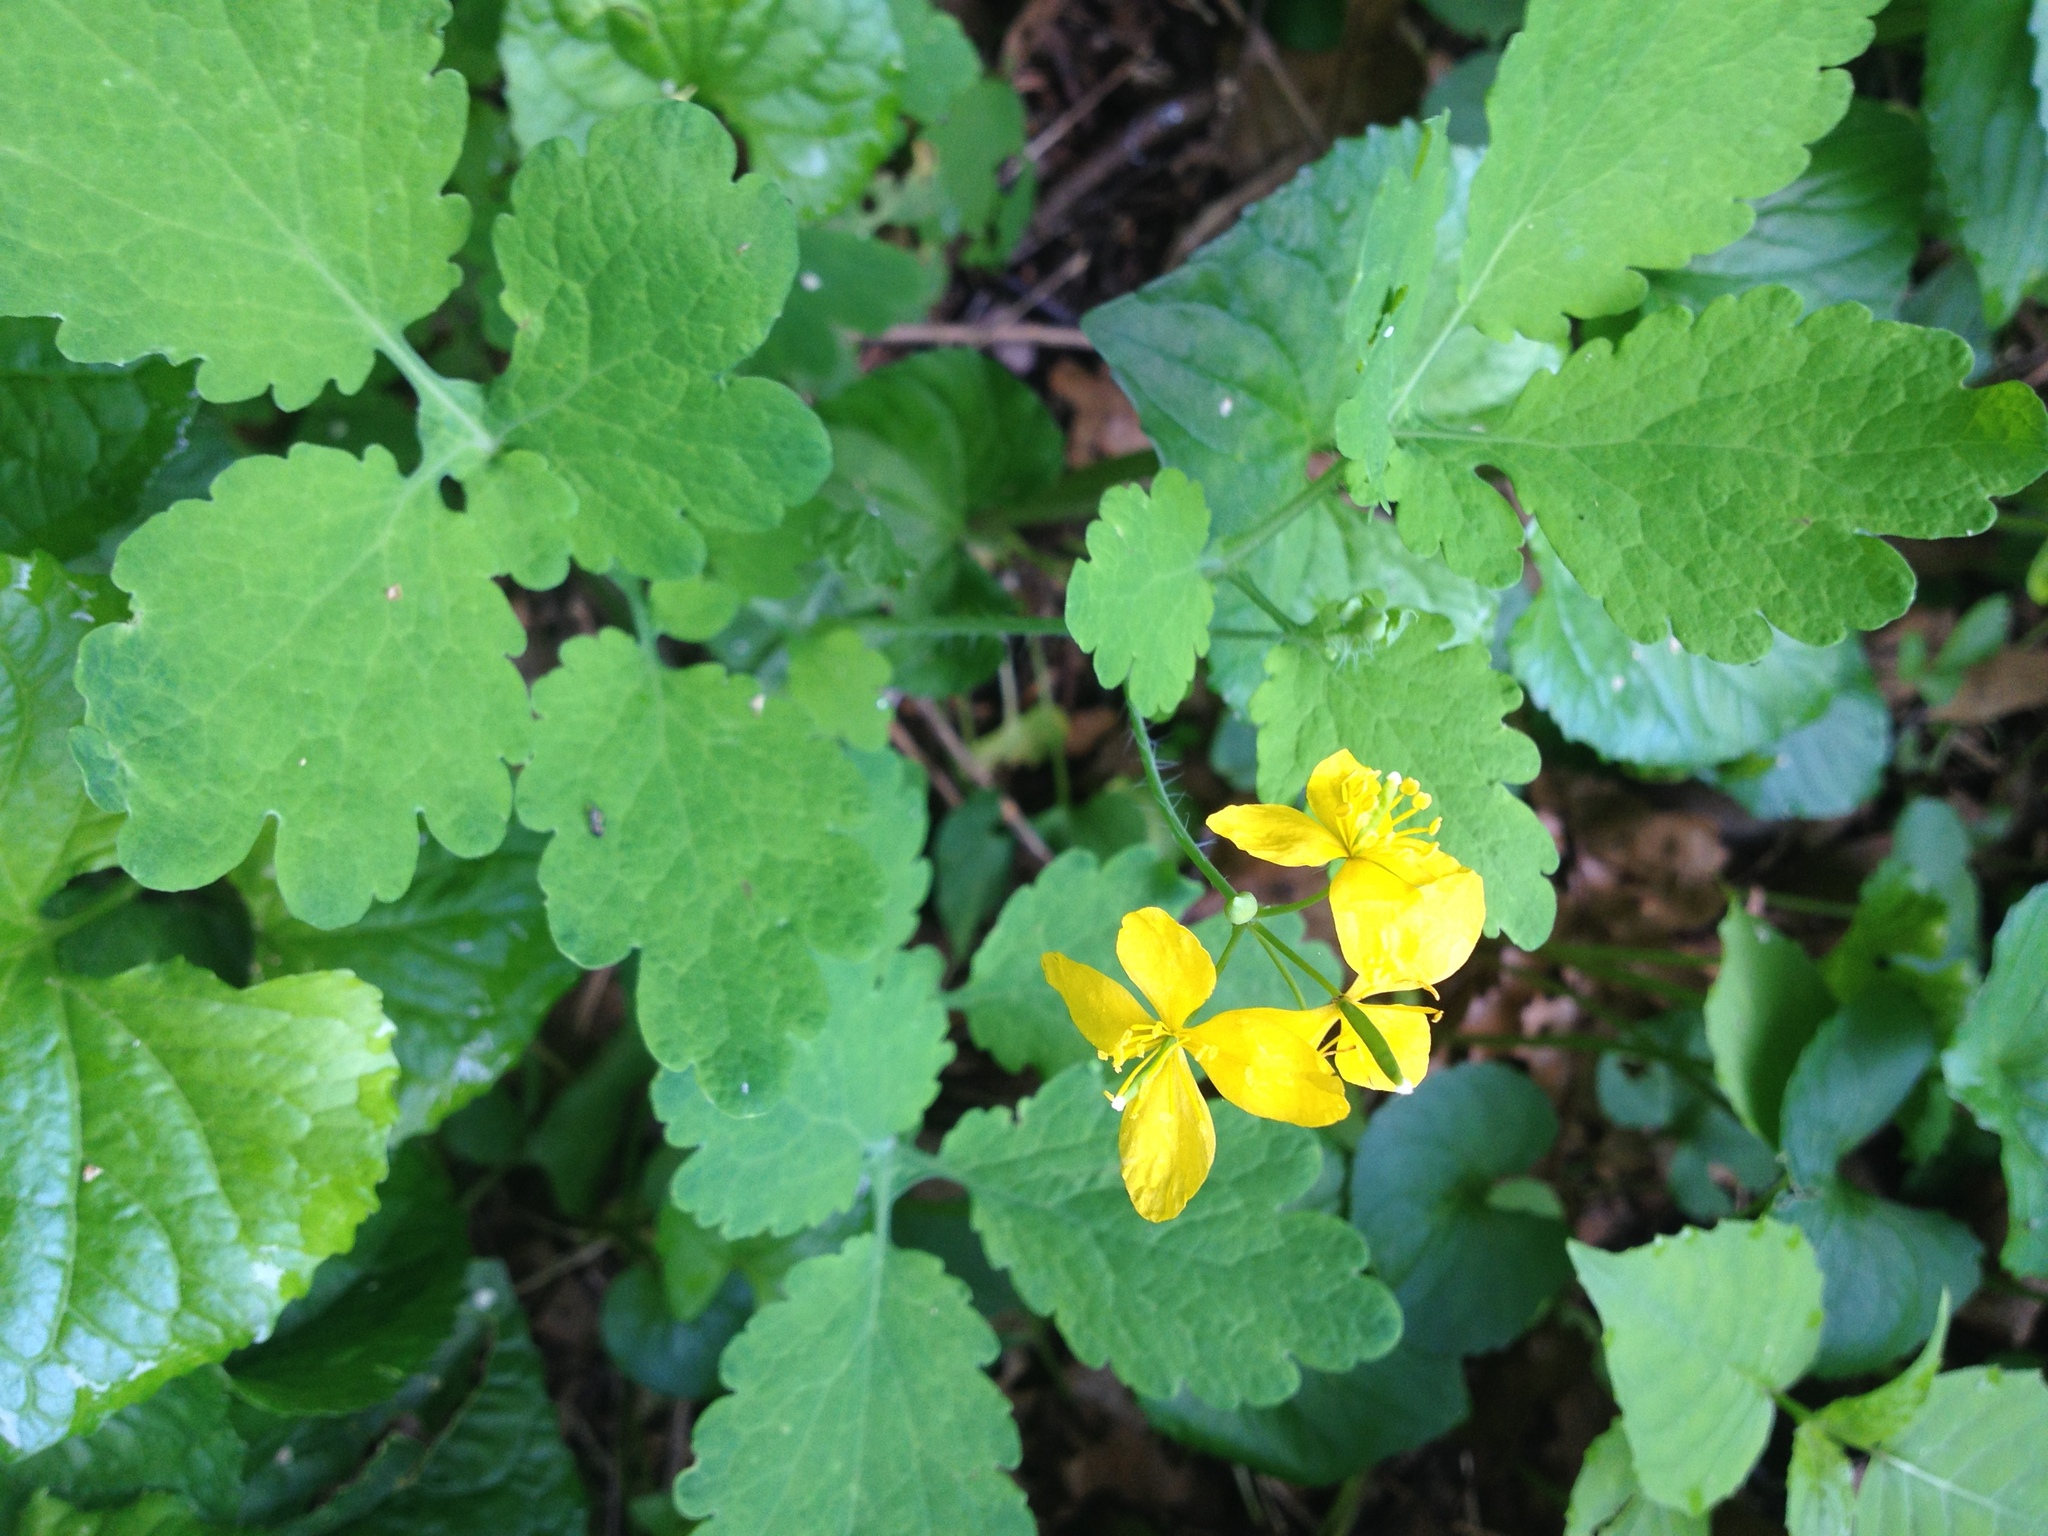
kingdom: Plantae
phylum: Tracheophyta
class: Magnoliopsida
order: Ranunculales
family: Papaveraceae
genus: Chelidonium
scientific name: Chelidonium majus
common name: Greater celandine
